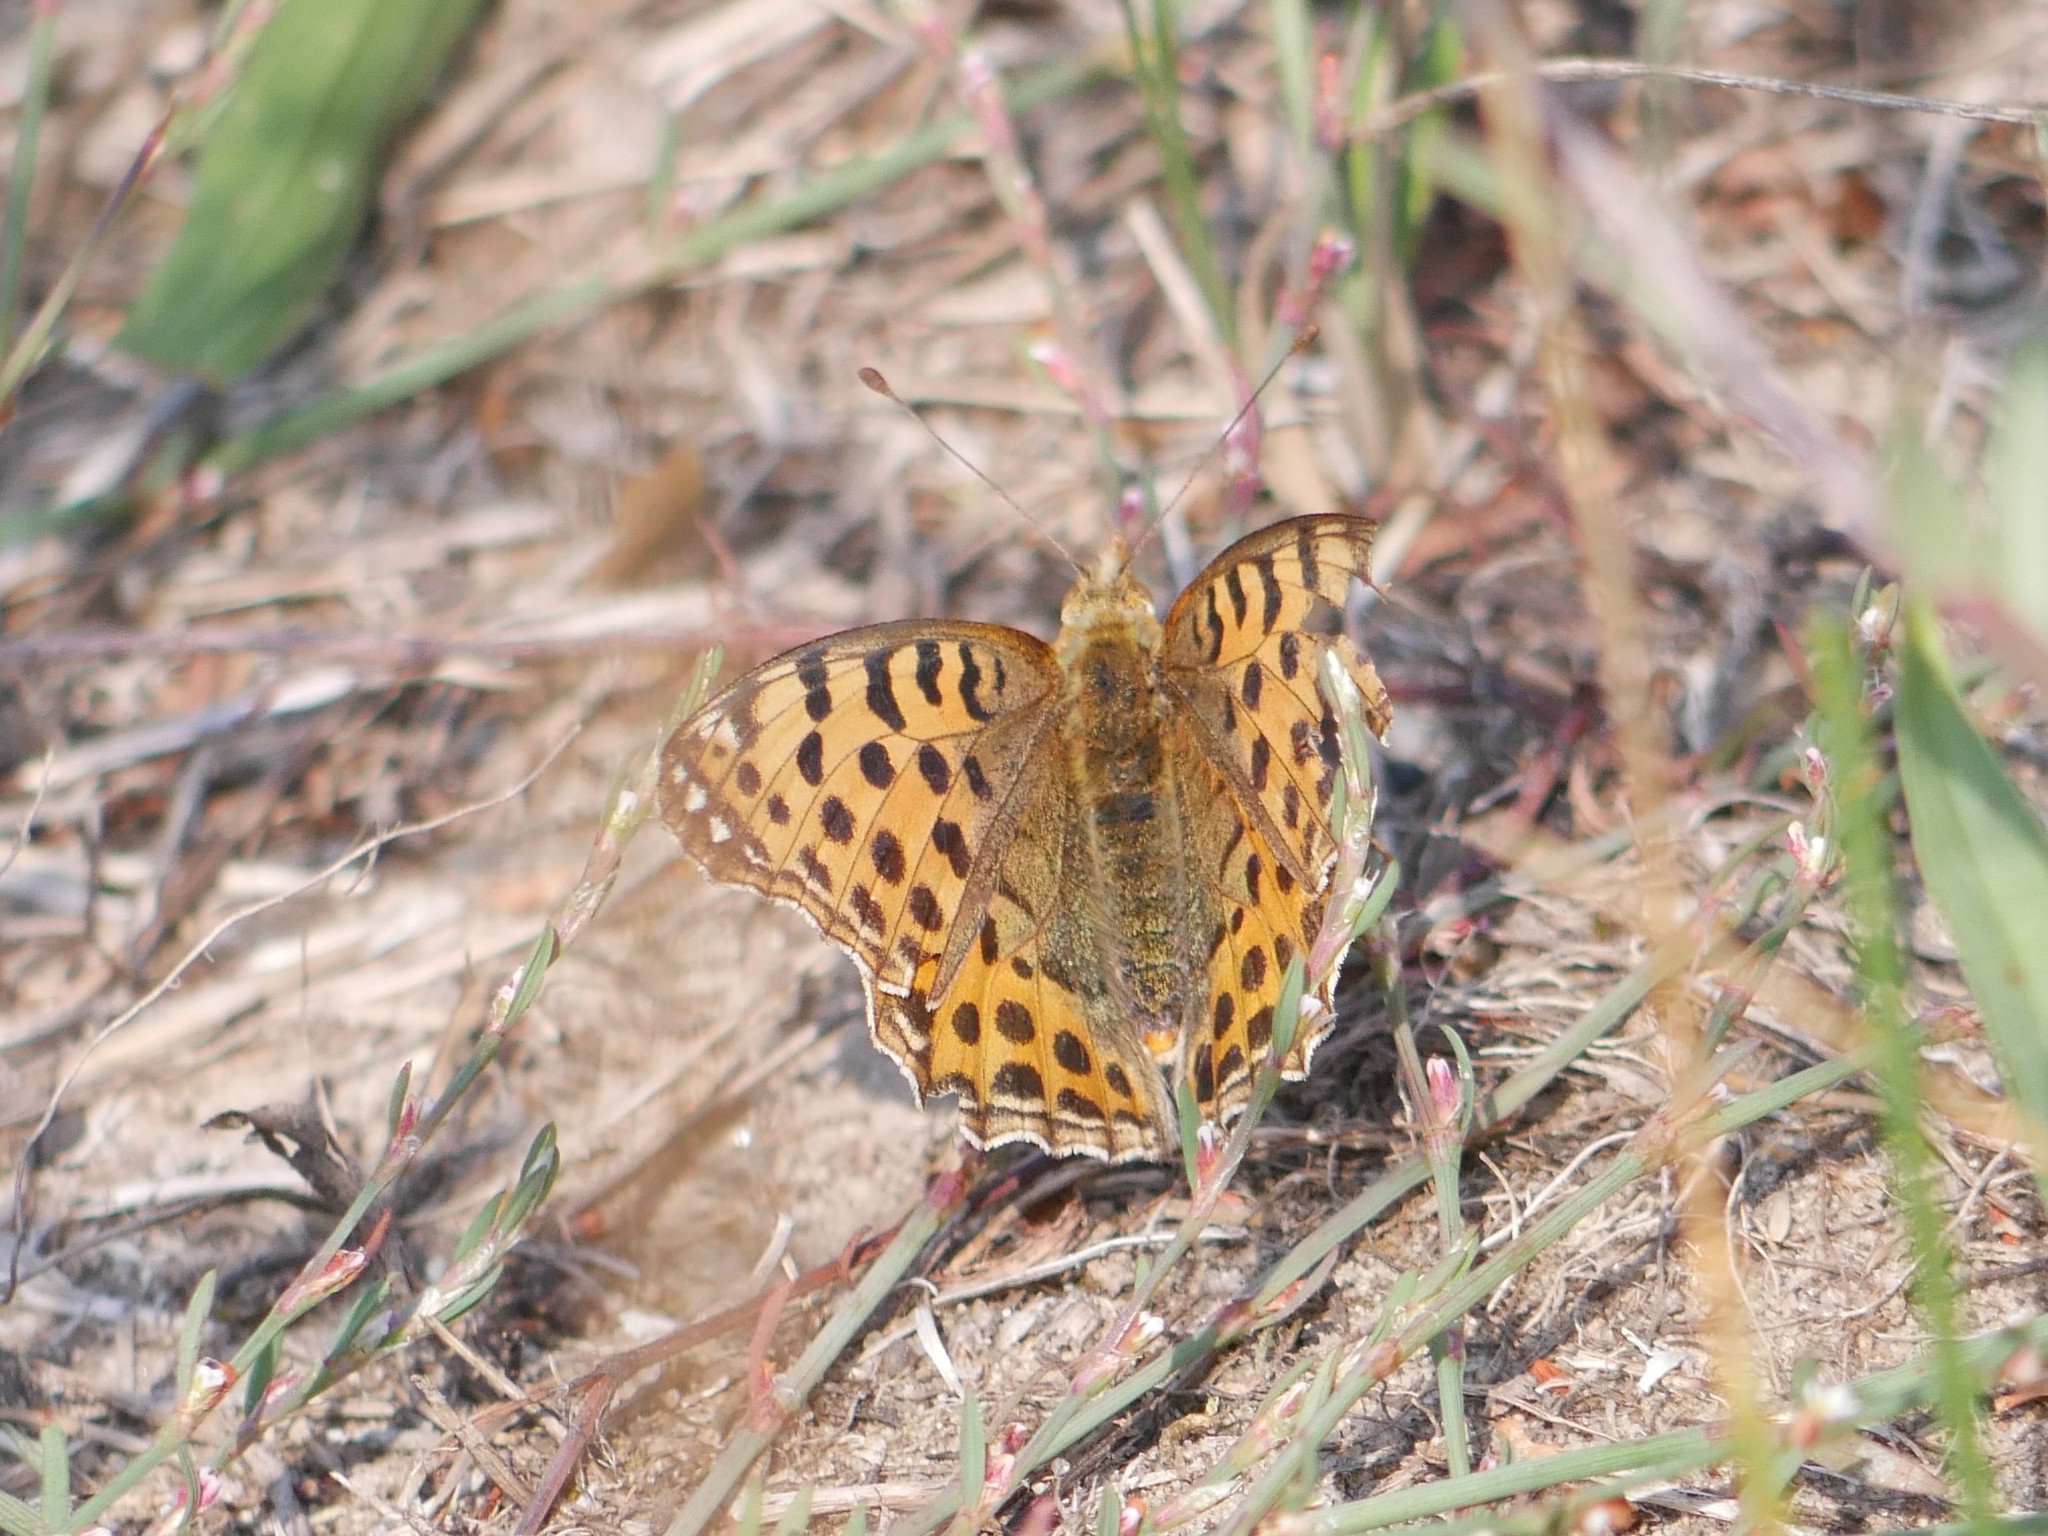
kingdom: Animalia
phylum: Arthropoda
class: Insecta
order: Lepidoptera
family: Nymphalidae
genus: Issoria
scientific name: Issoria lathonia
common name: Queen of spain fritillary
